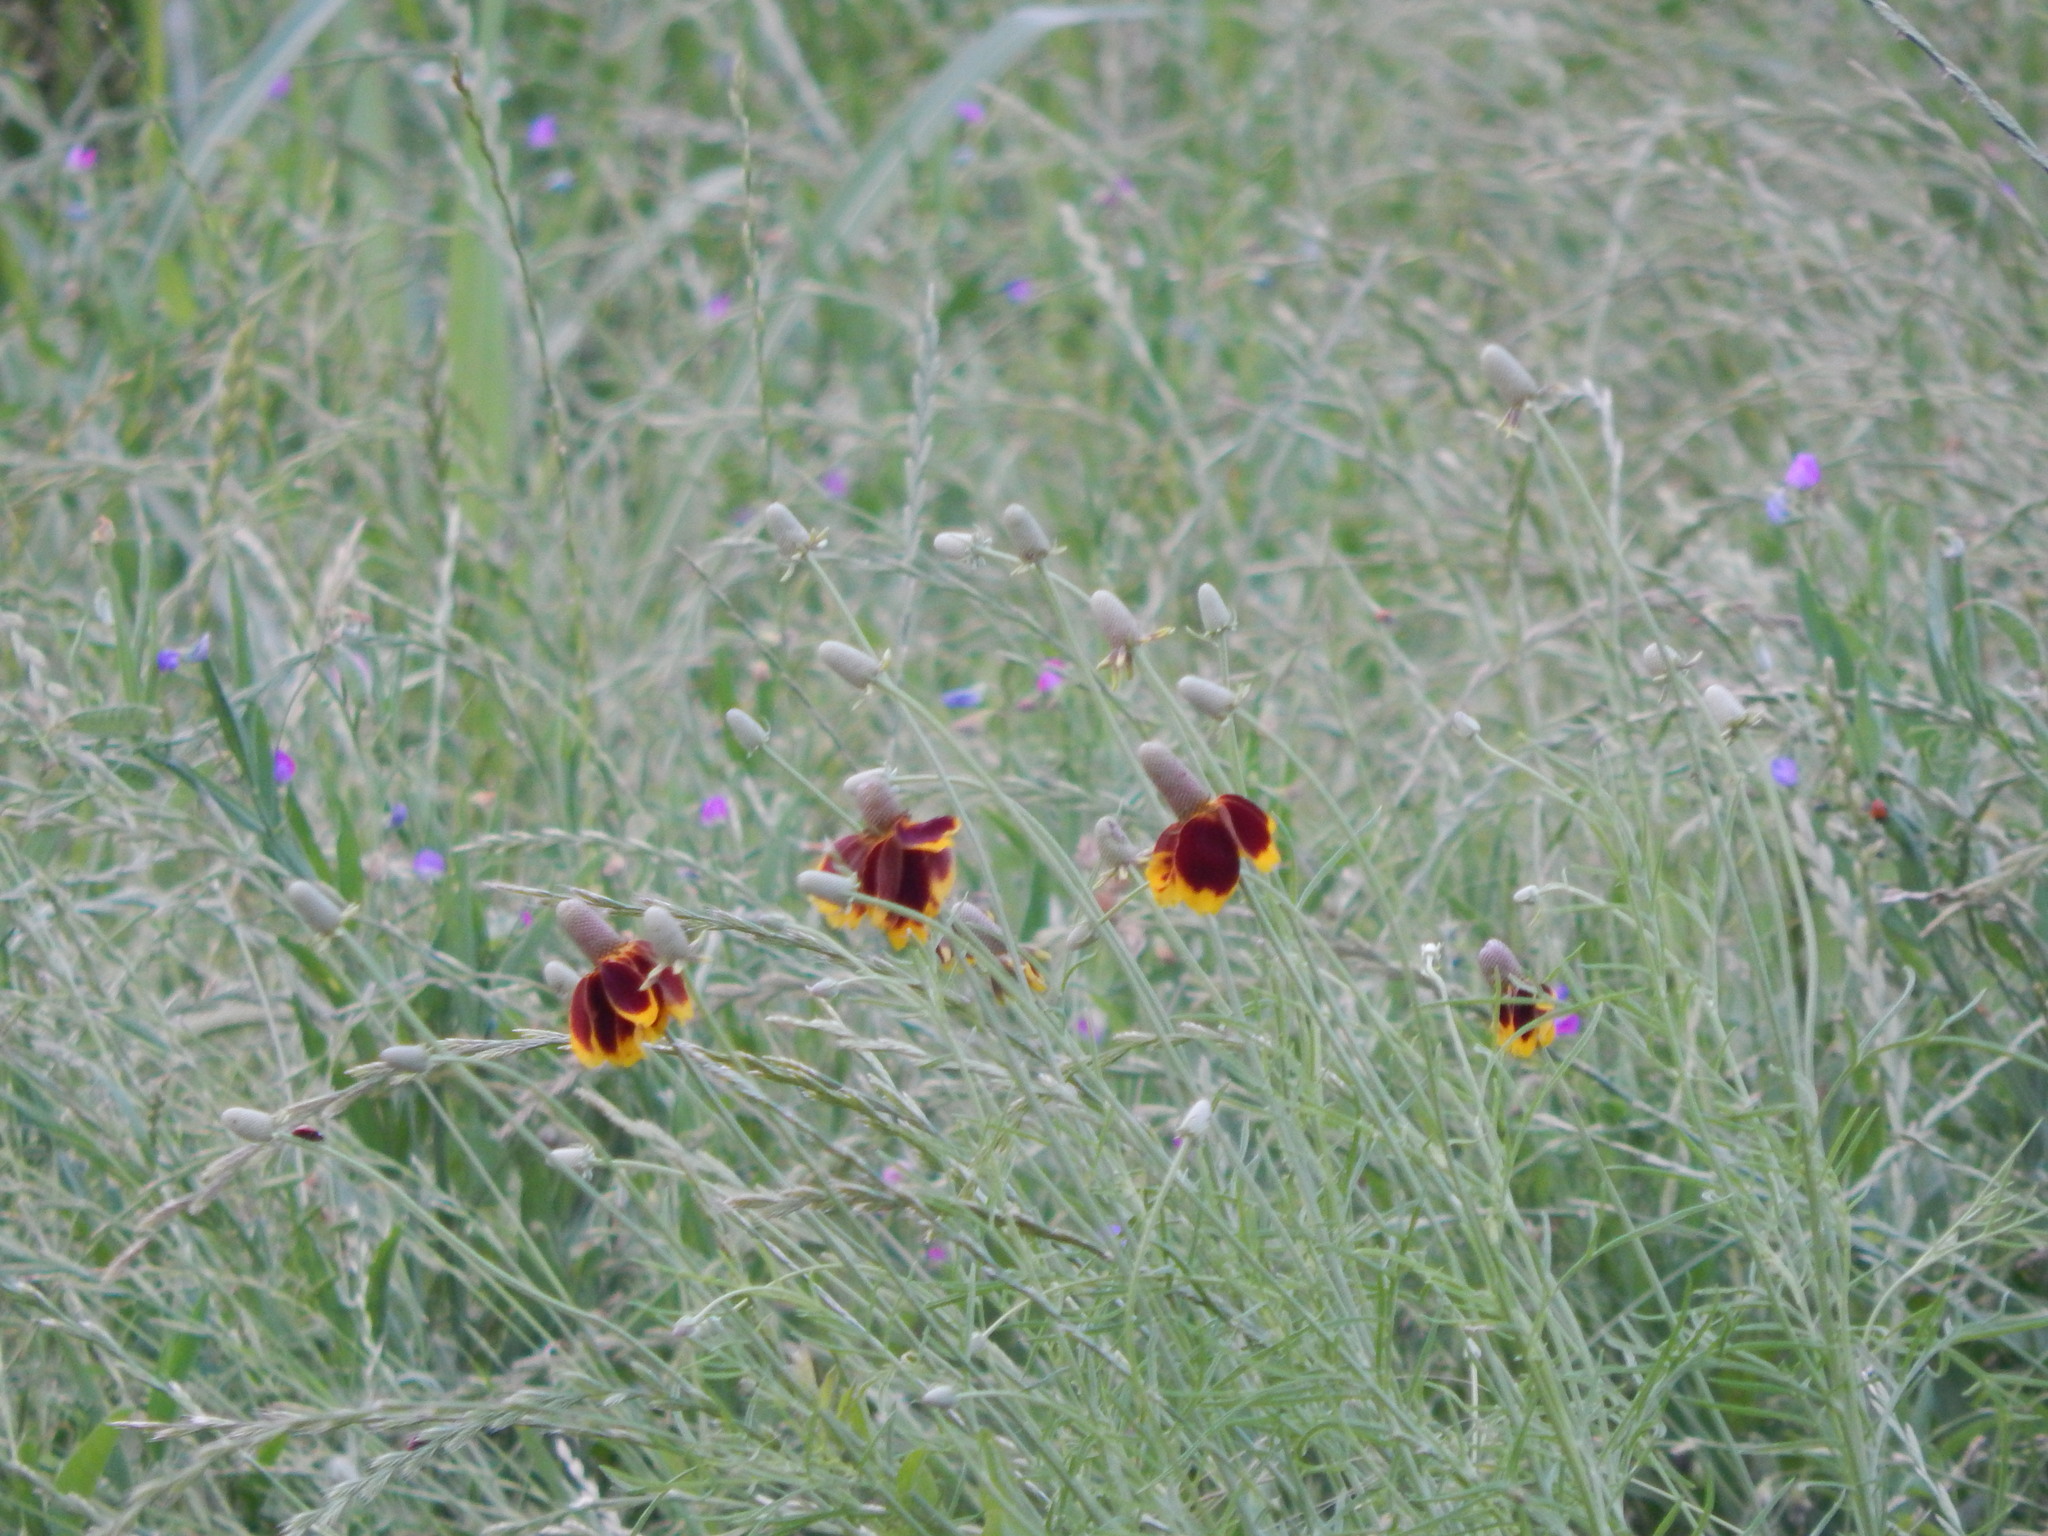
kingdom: Plantae
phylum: Tracheophyta
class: Magnoliopsida
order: Asterales
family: Asteraceae
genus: Ratibida
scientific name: Ratibida columnifera
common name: Prairie coneflower
